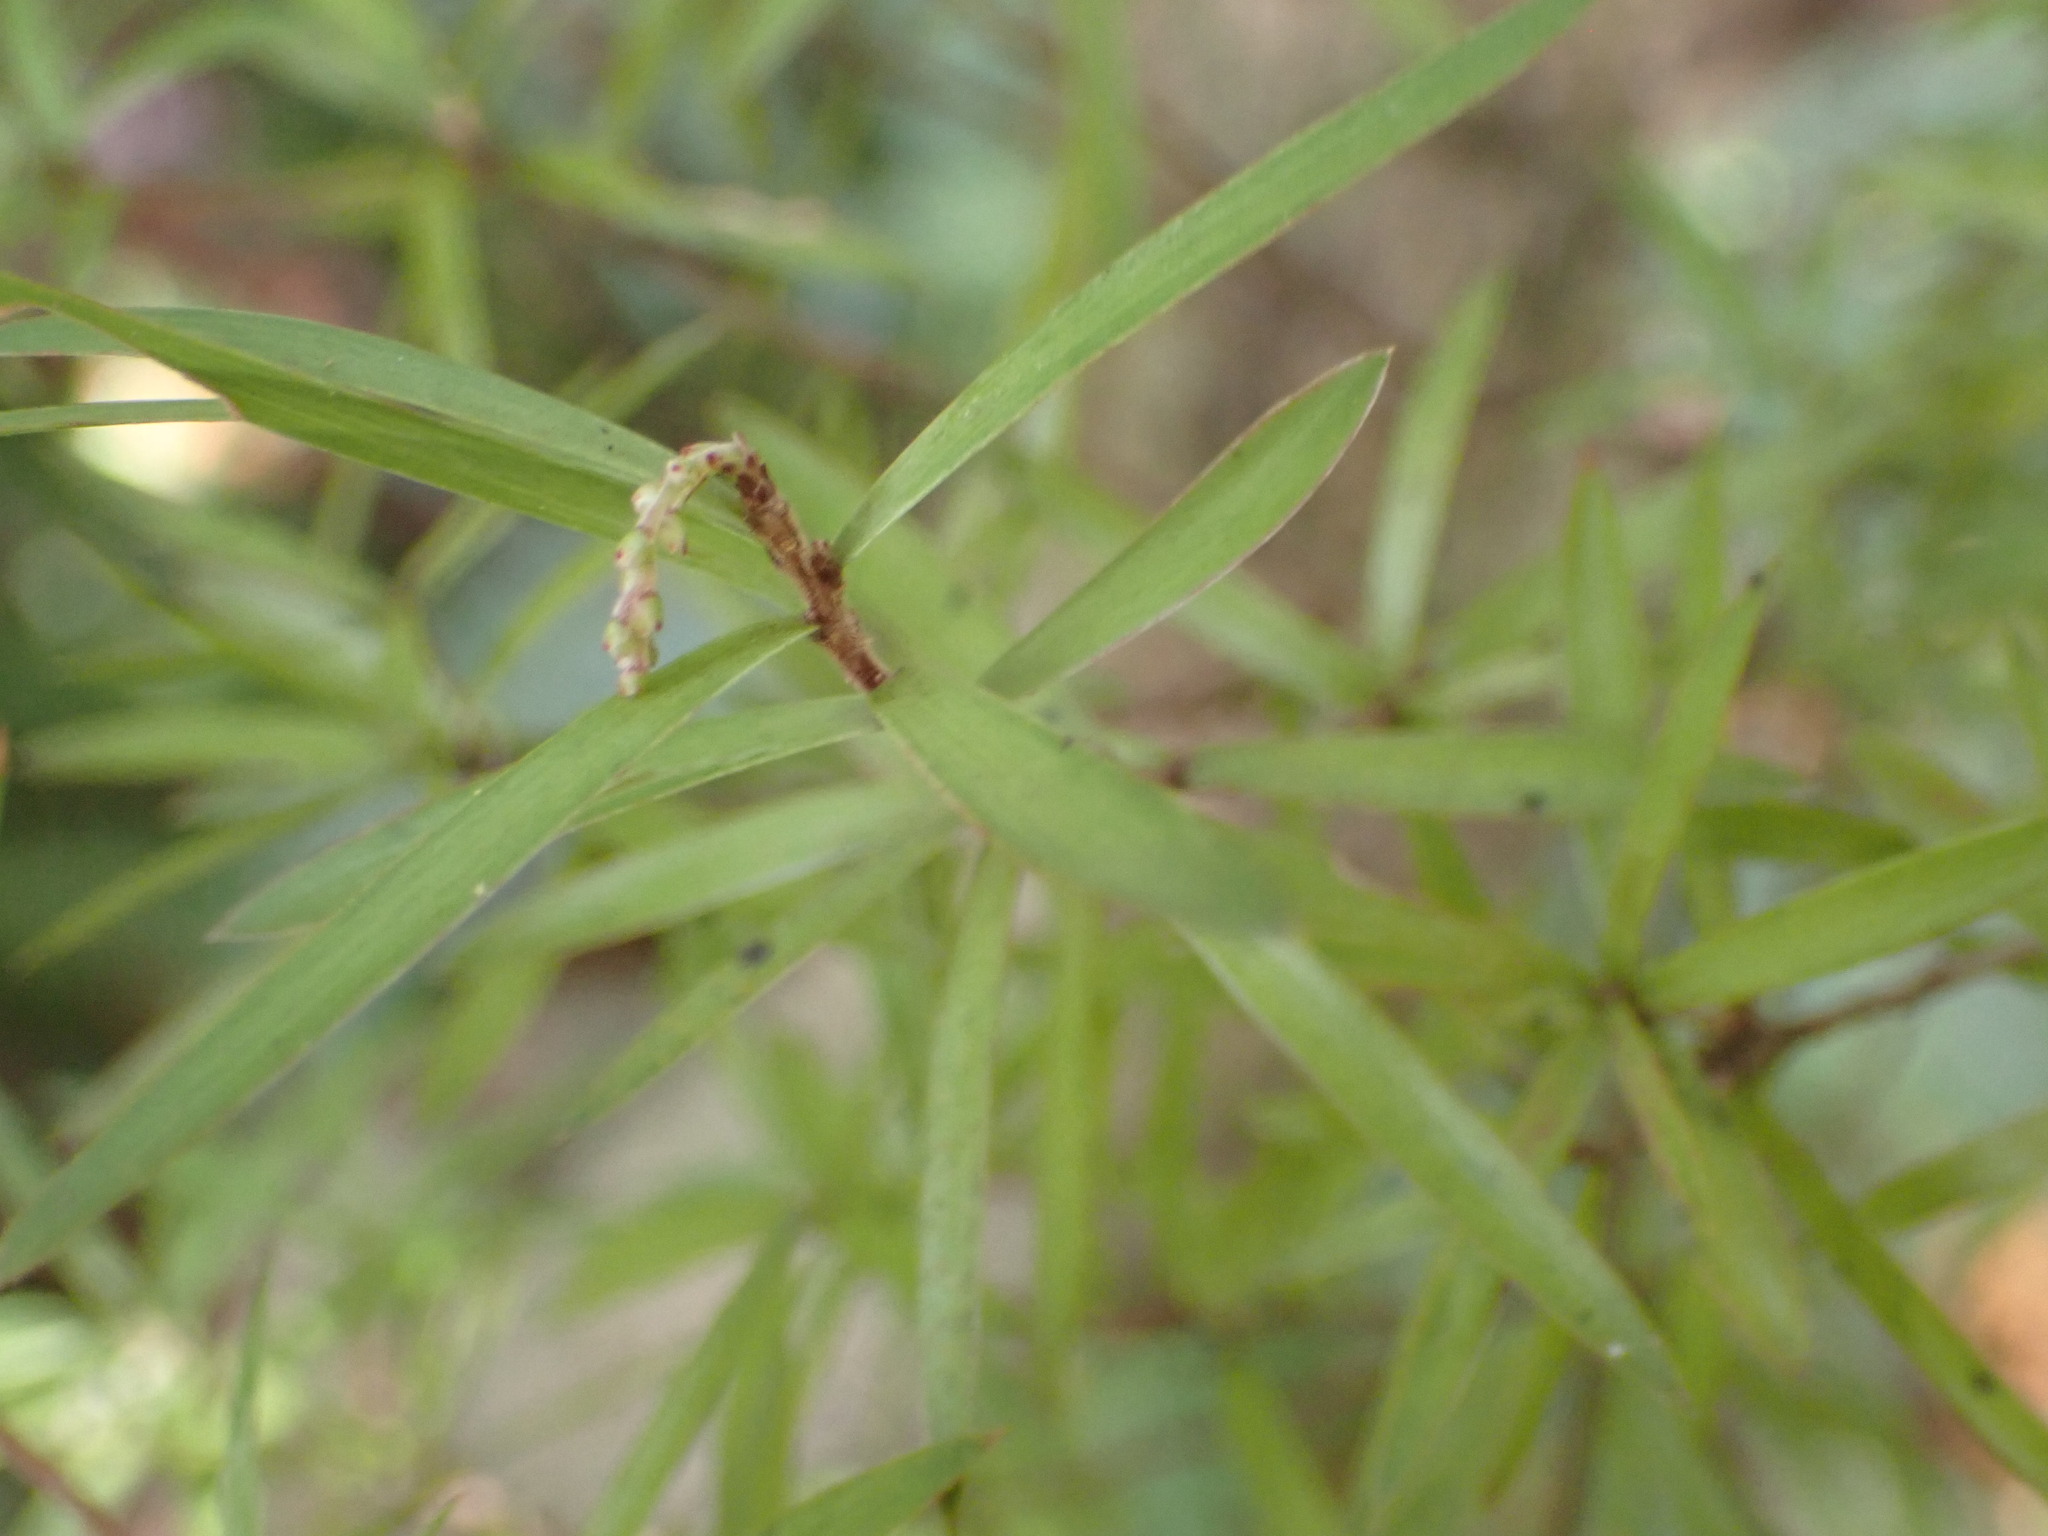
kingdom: Plantae
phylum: Tracheophyta
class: Magnoliopsida
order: Ericales
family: Ericaceae
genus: Leucopogon
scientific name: Leucopogon fasciculatus
